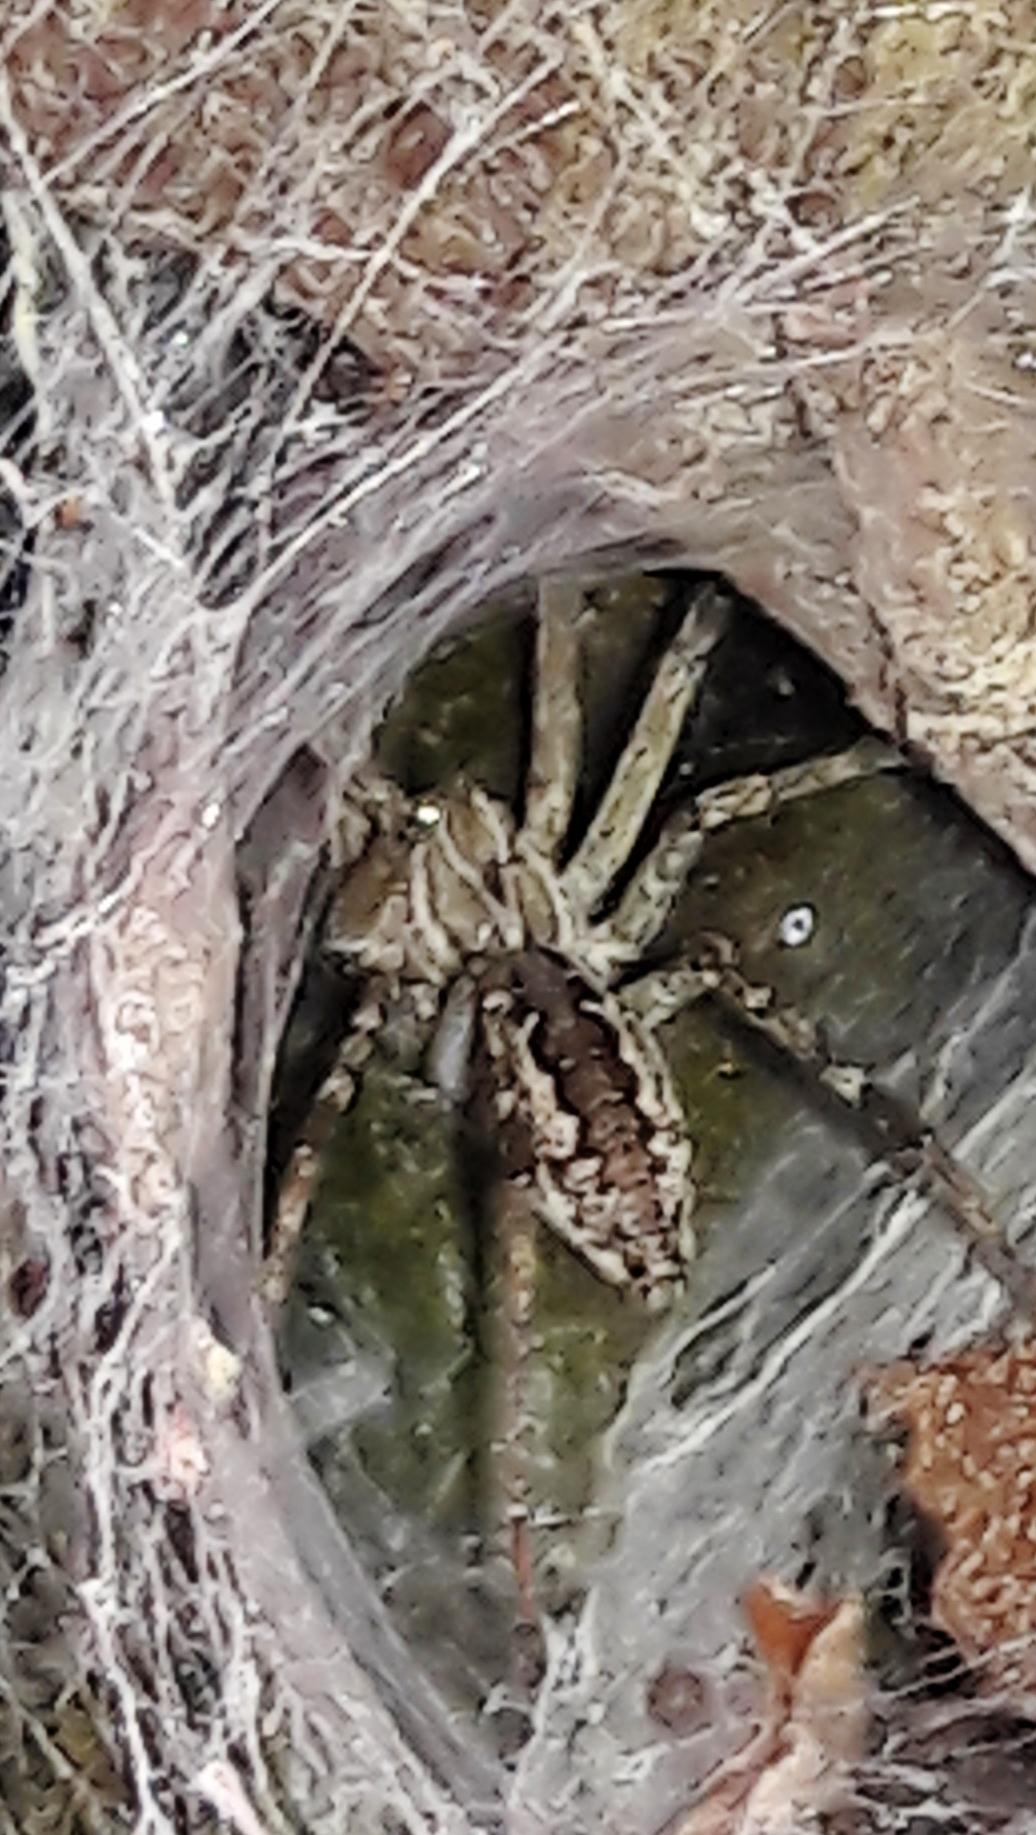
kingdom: Animalia
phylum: Arthropoda
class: Arachnida
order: Araneae
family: Lycosidae
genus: Aglaoctenus
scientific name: Aglaoctenus lagotis
